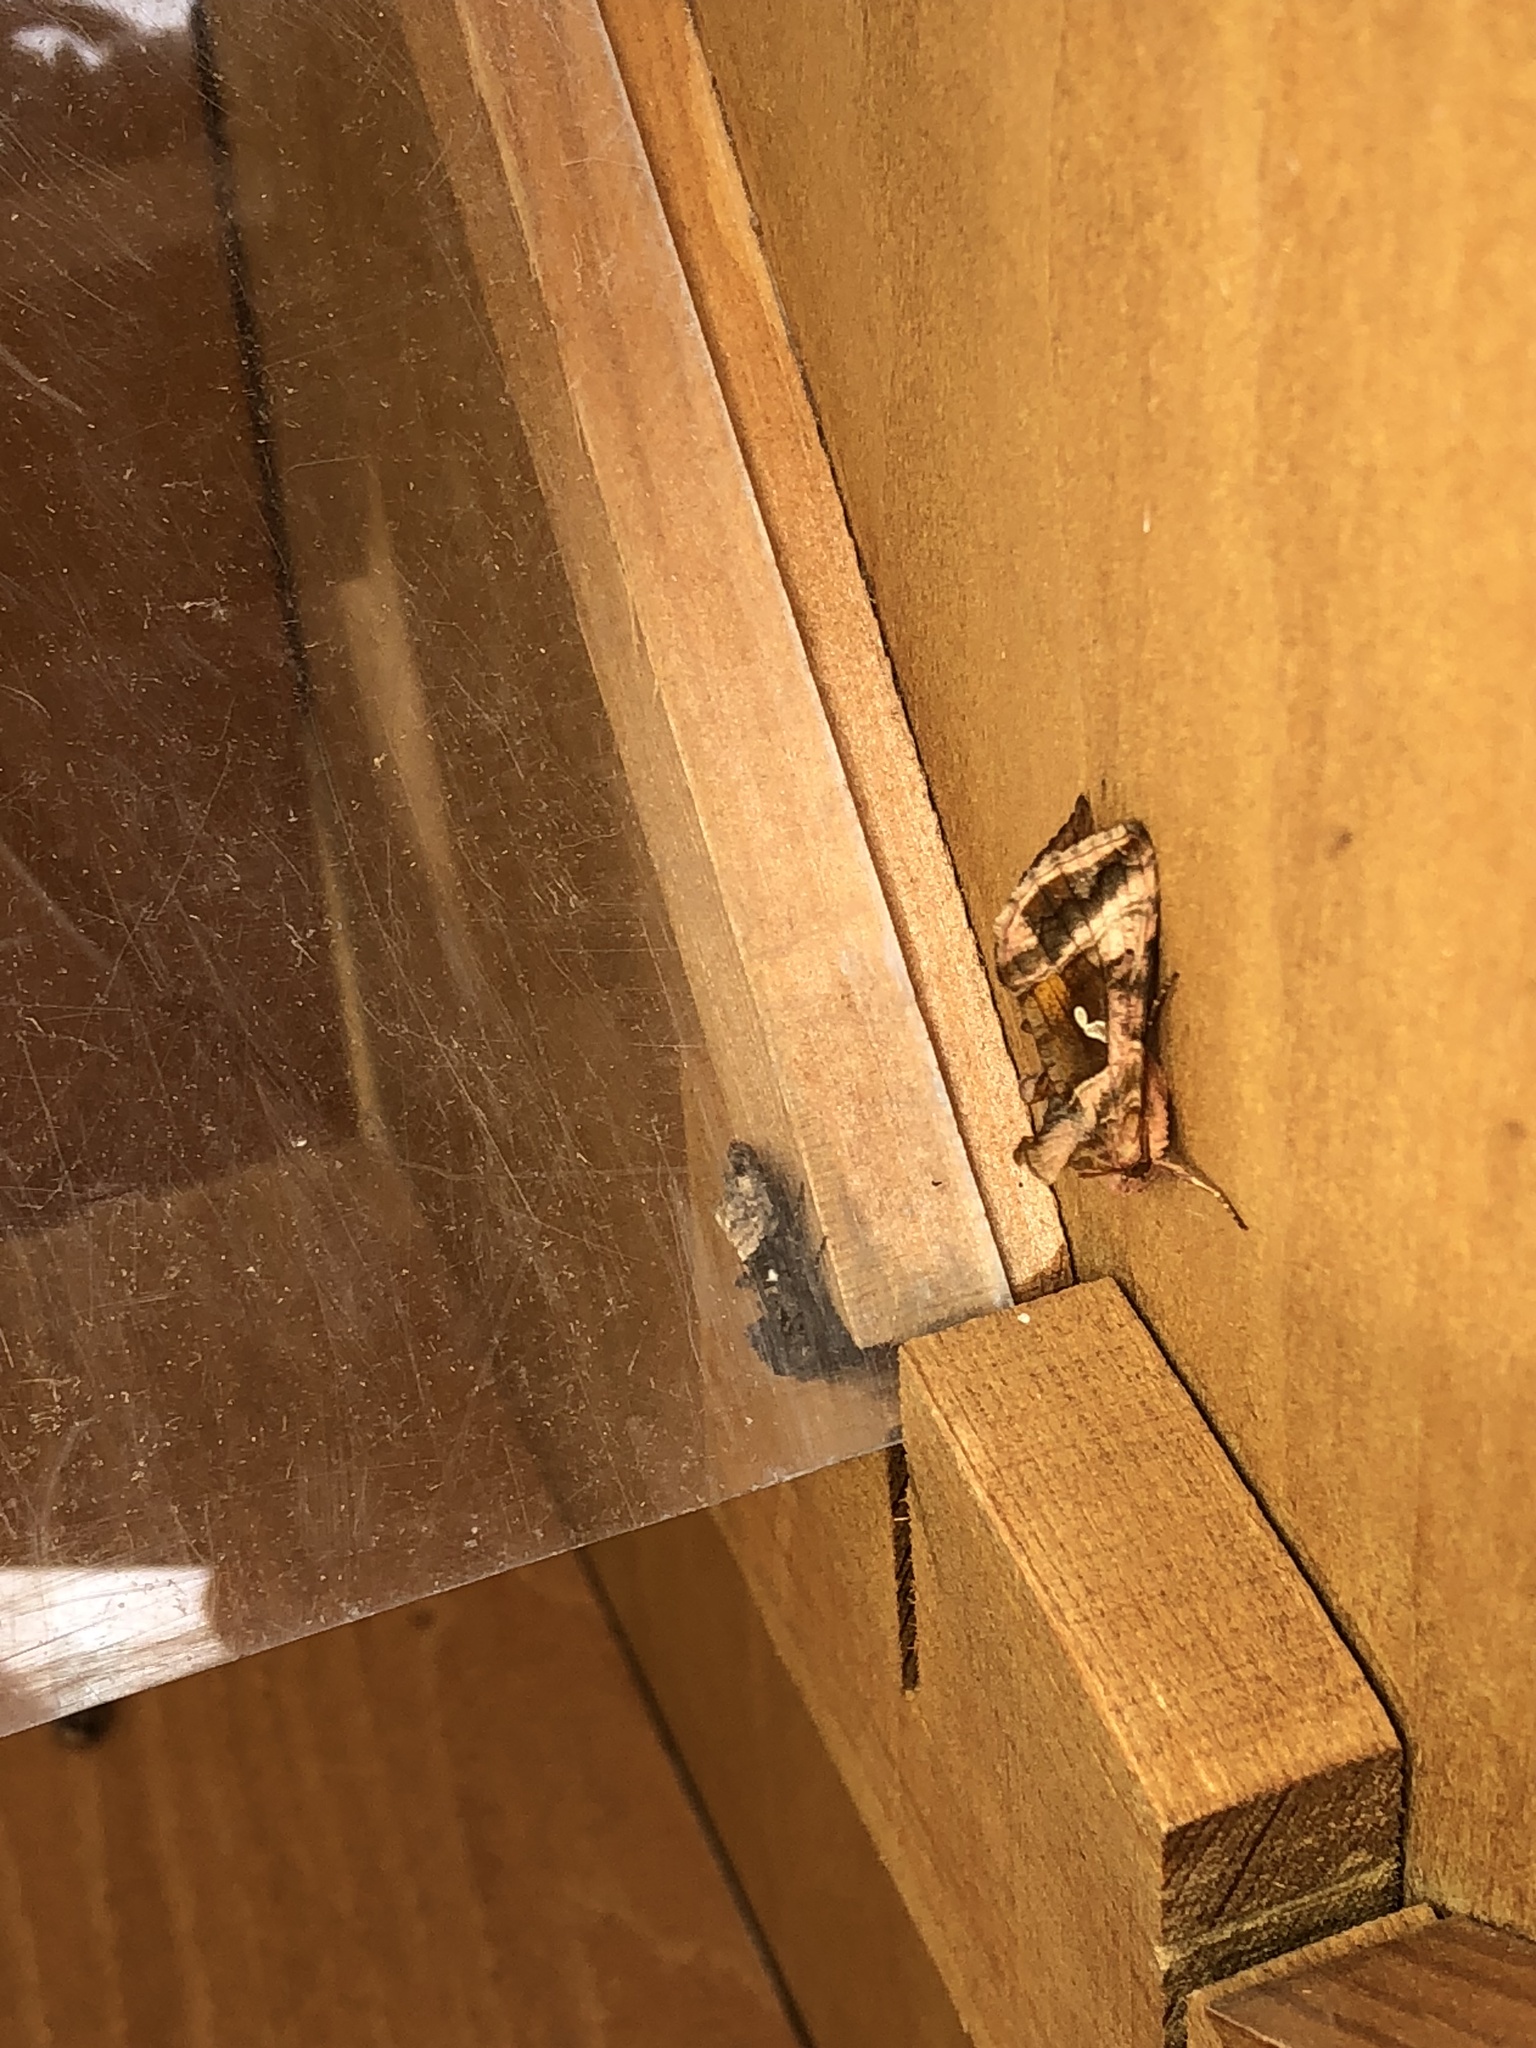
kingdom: Animalia
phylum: Arthropoda
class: Insecta
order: Lepidoptera
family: Noctuidae
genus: Autographa
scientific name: Autographa jota
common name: Plain golden y
